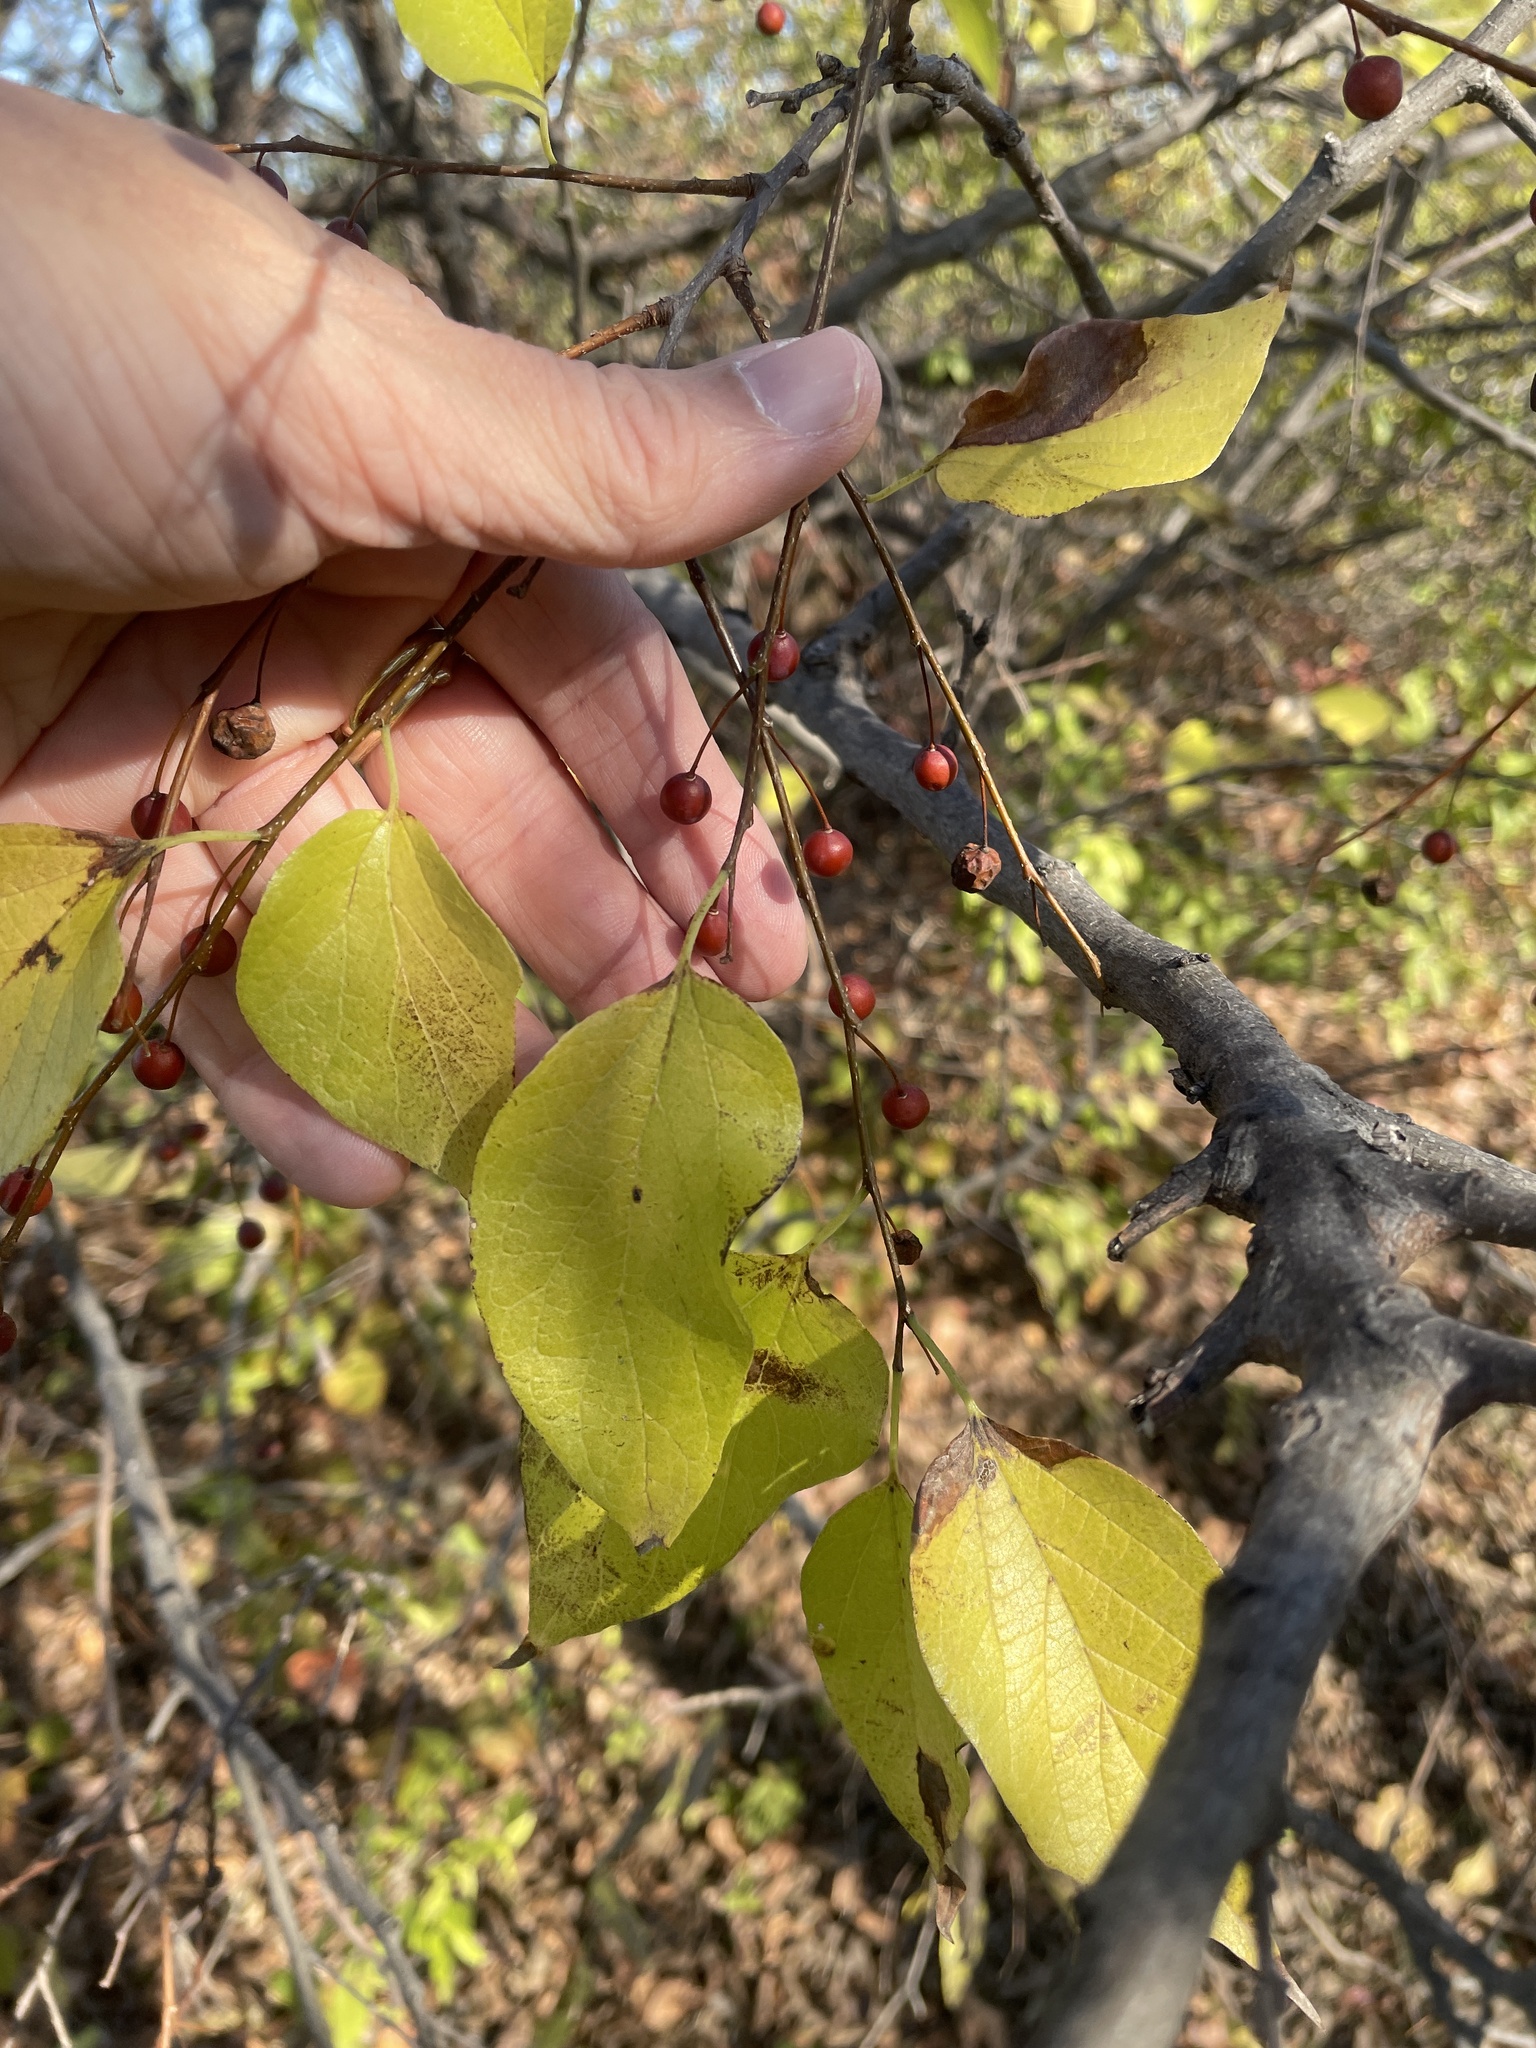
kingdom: Plantae
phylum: Tracheophyta
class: Magnoliopsida
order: Rosales
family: Cannabaceae
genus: Celtis
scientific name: Celtis laevigata
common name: Sugarberry
